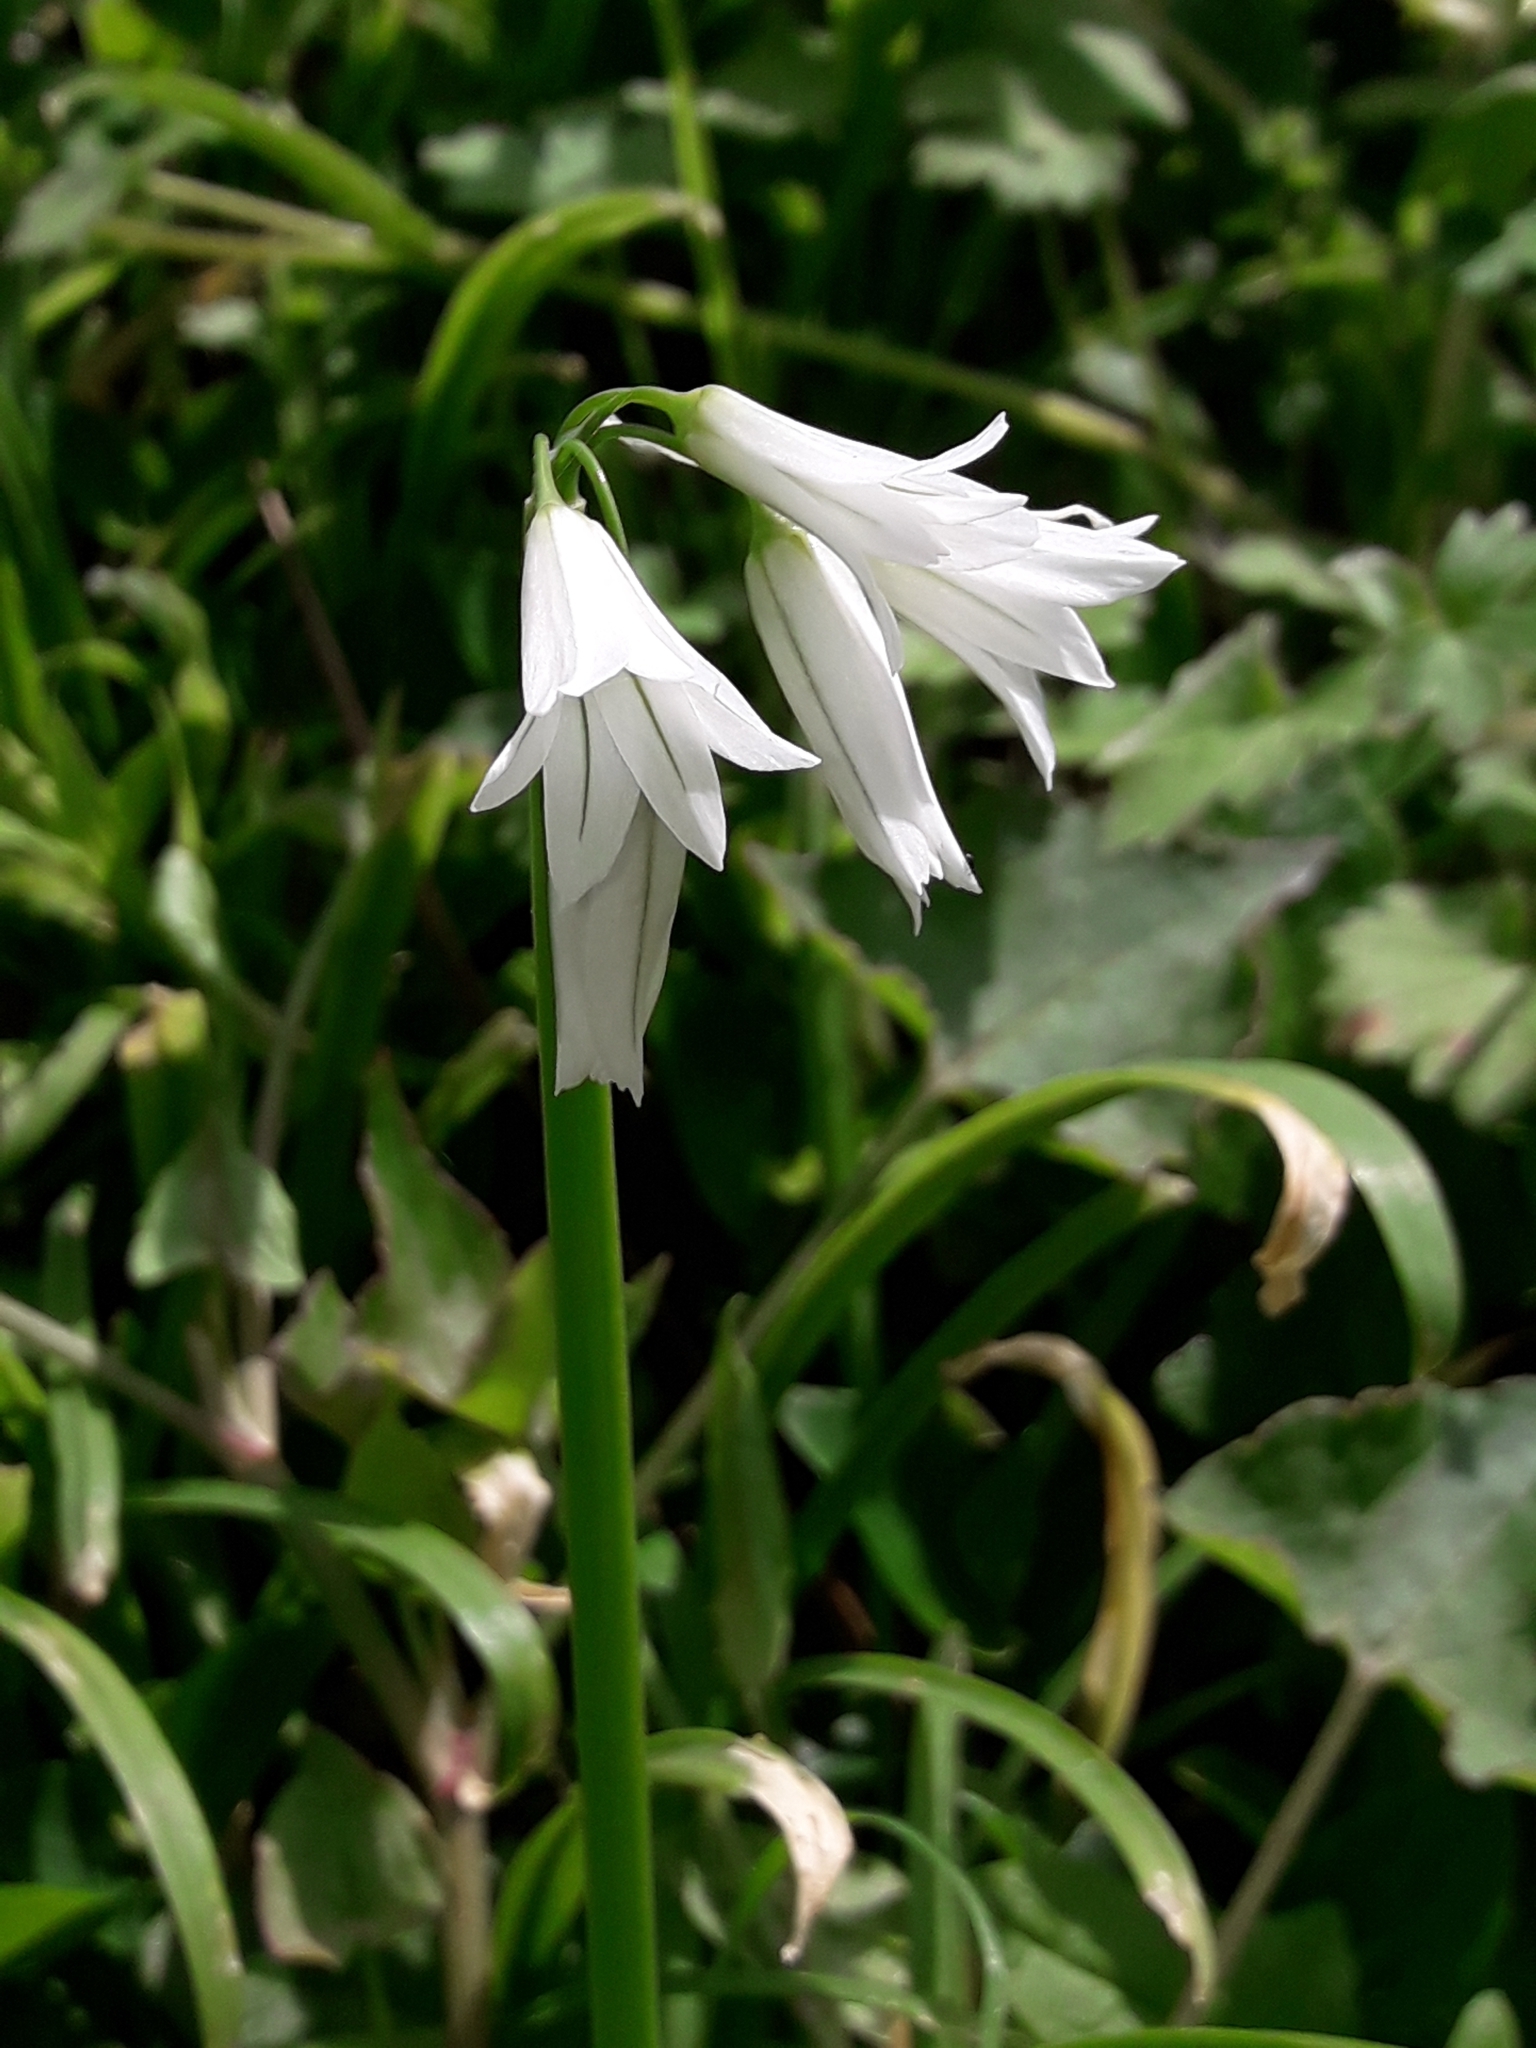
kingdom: Plantae
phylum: Tracheophyta
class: Liliopsida
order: Asparagales
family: Amaryllidaceae
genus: Allium
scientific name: Allium triquetrum
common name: Three-cornered garlic
